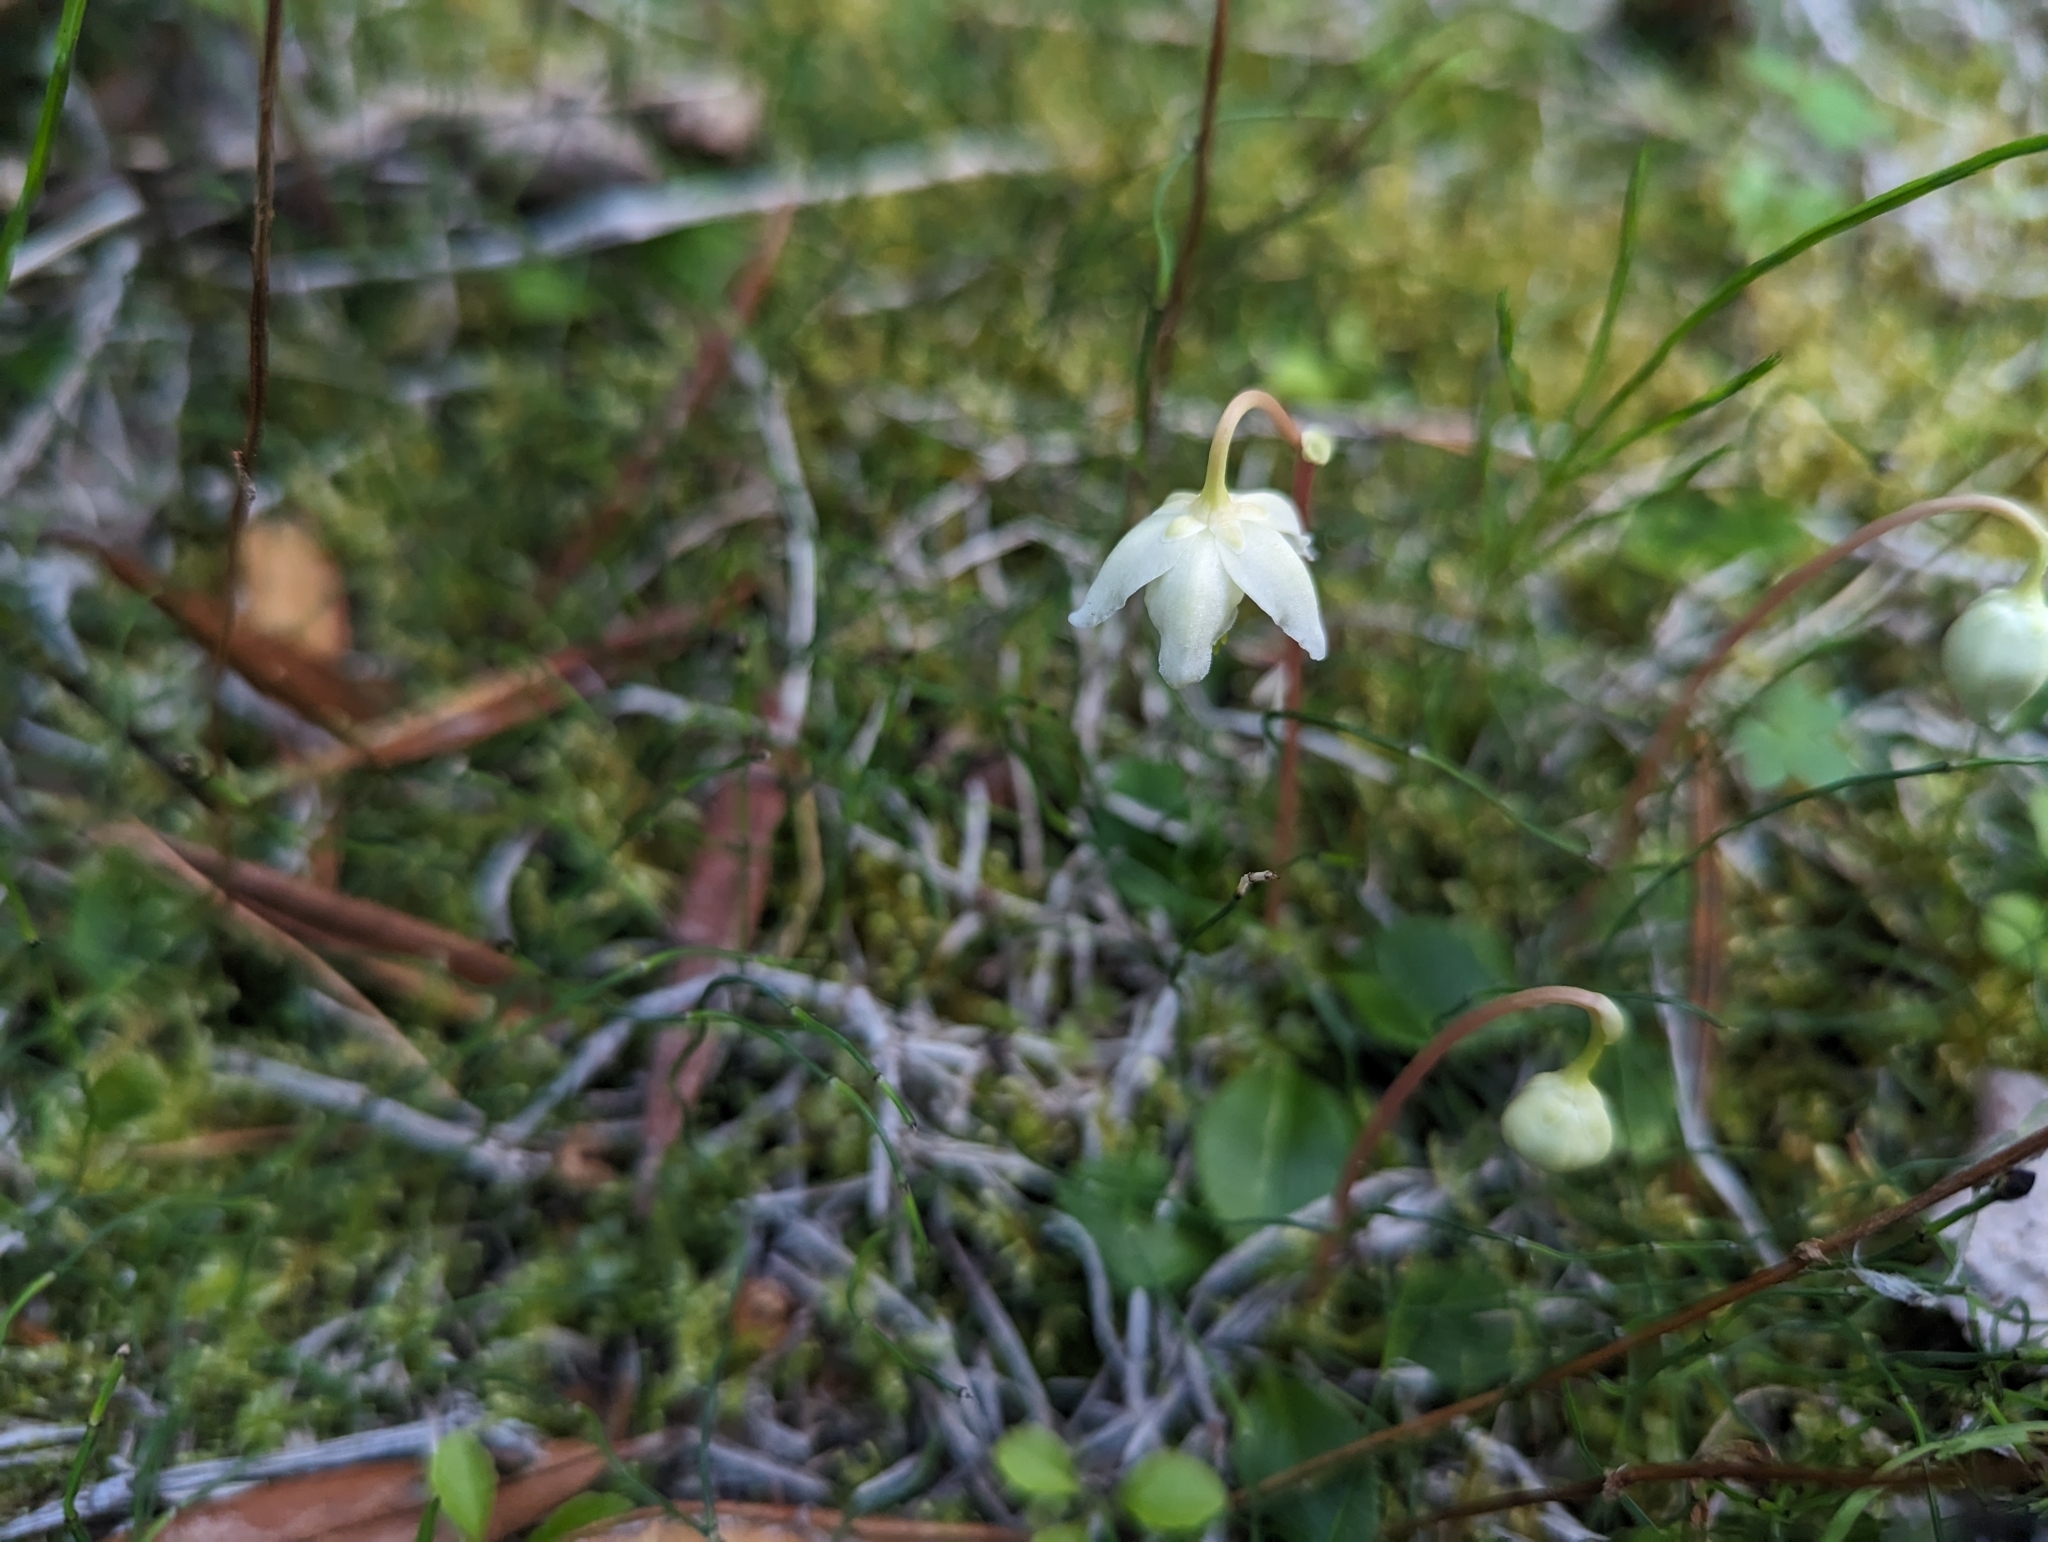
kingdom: Plantae
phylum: Tracheophyta
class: Magnoliopsida
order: Ericales
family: Ericaceae
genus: Moneses
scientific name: Moneses uniflora
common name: One-flowered wintergreen
